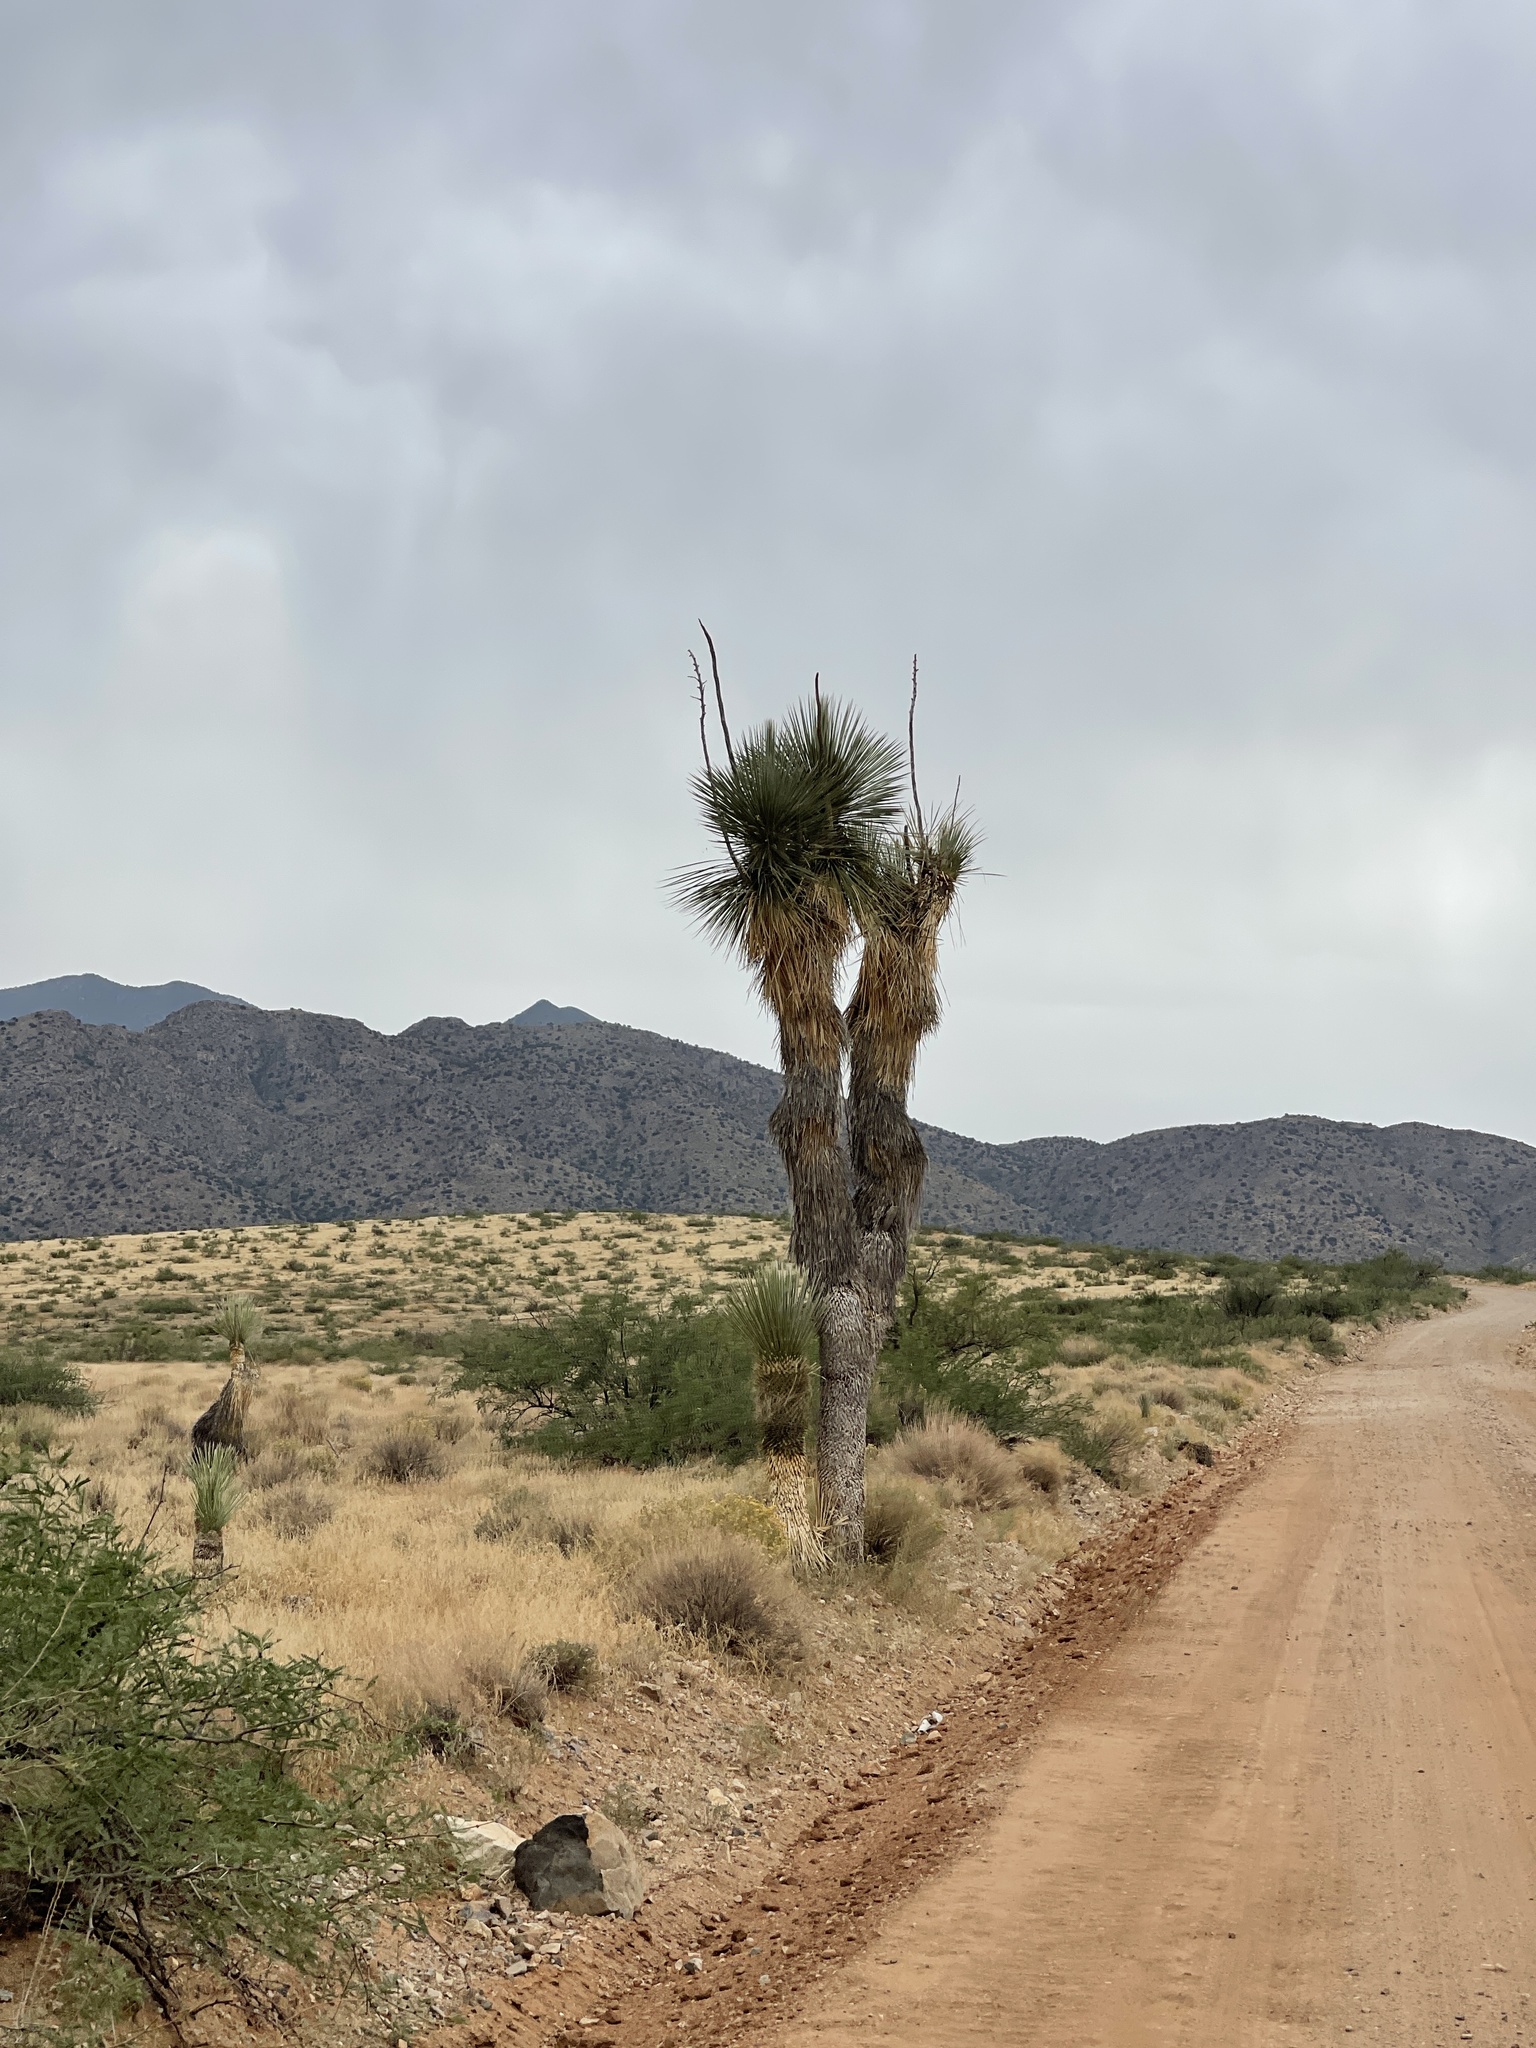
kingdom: Plantae
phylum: Tracheophyta
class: Liliopsida
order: Asparagales
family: Asparagaceae
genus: Yucca
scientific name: Yucca elata
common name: Palmella
